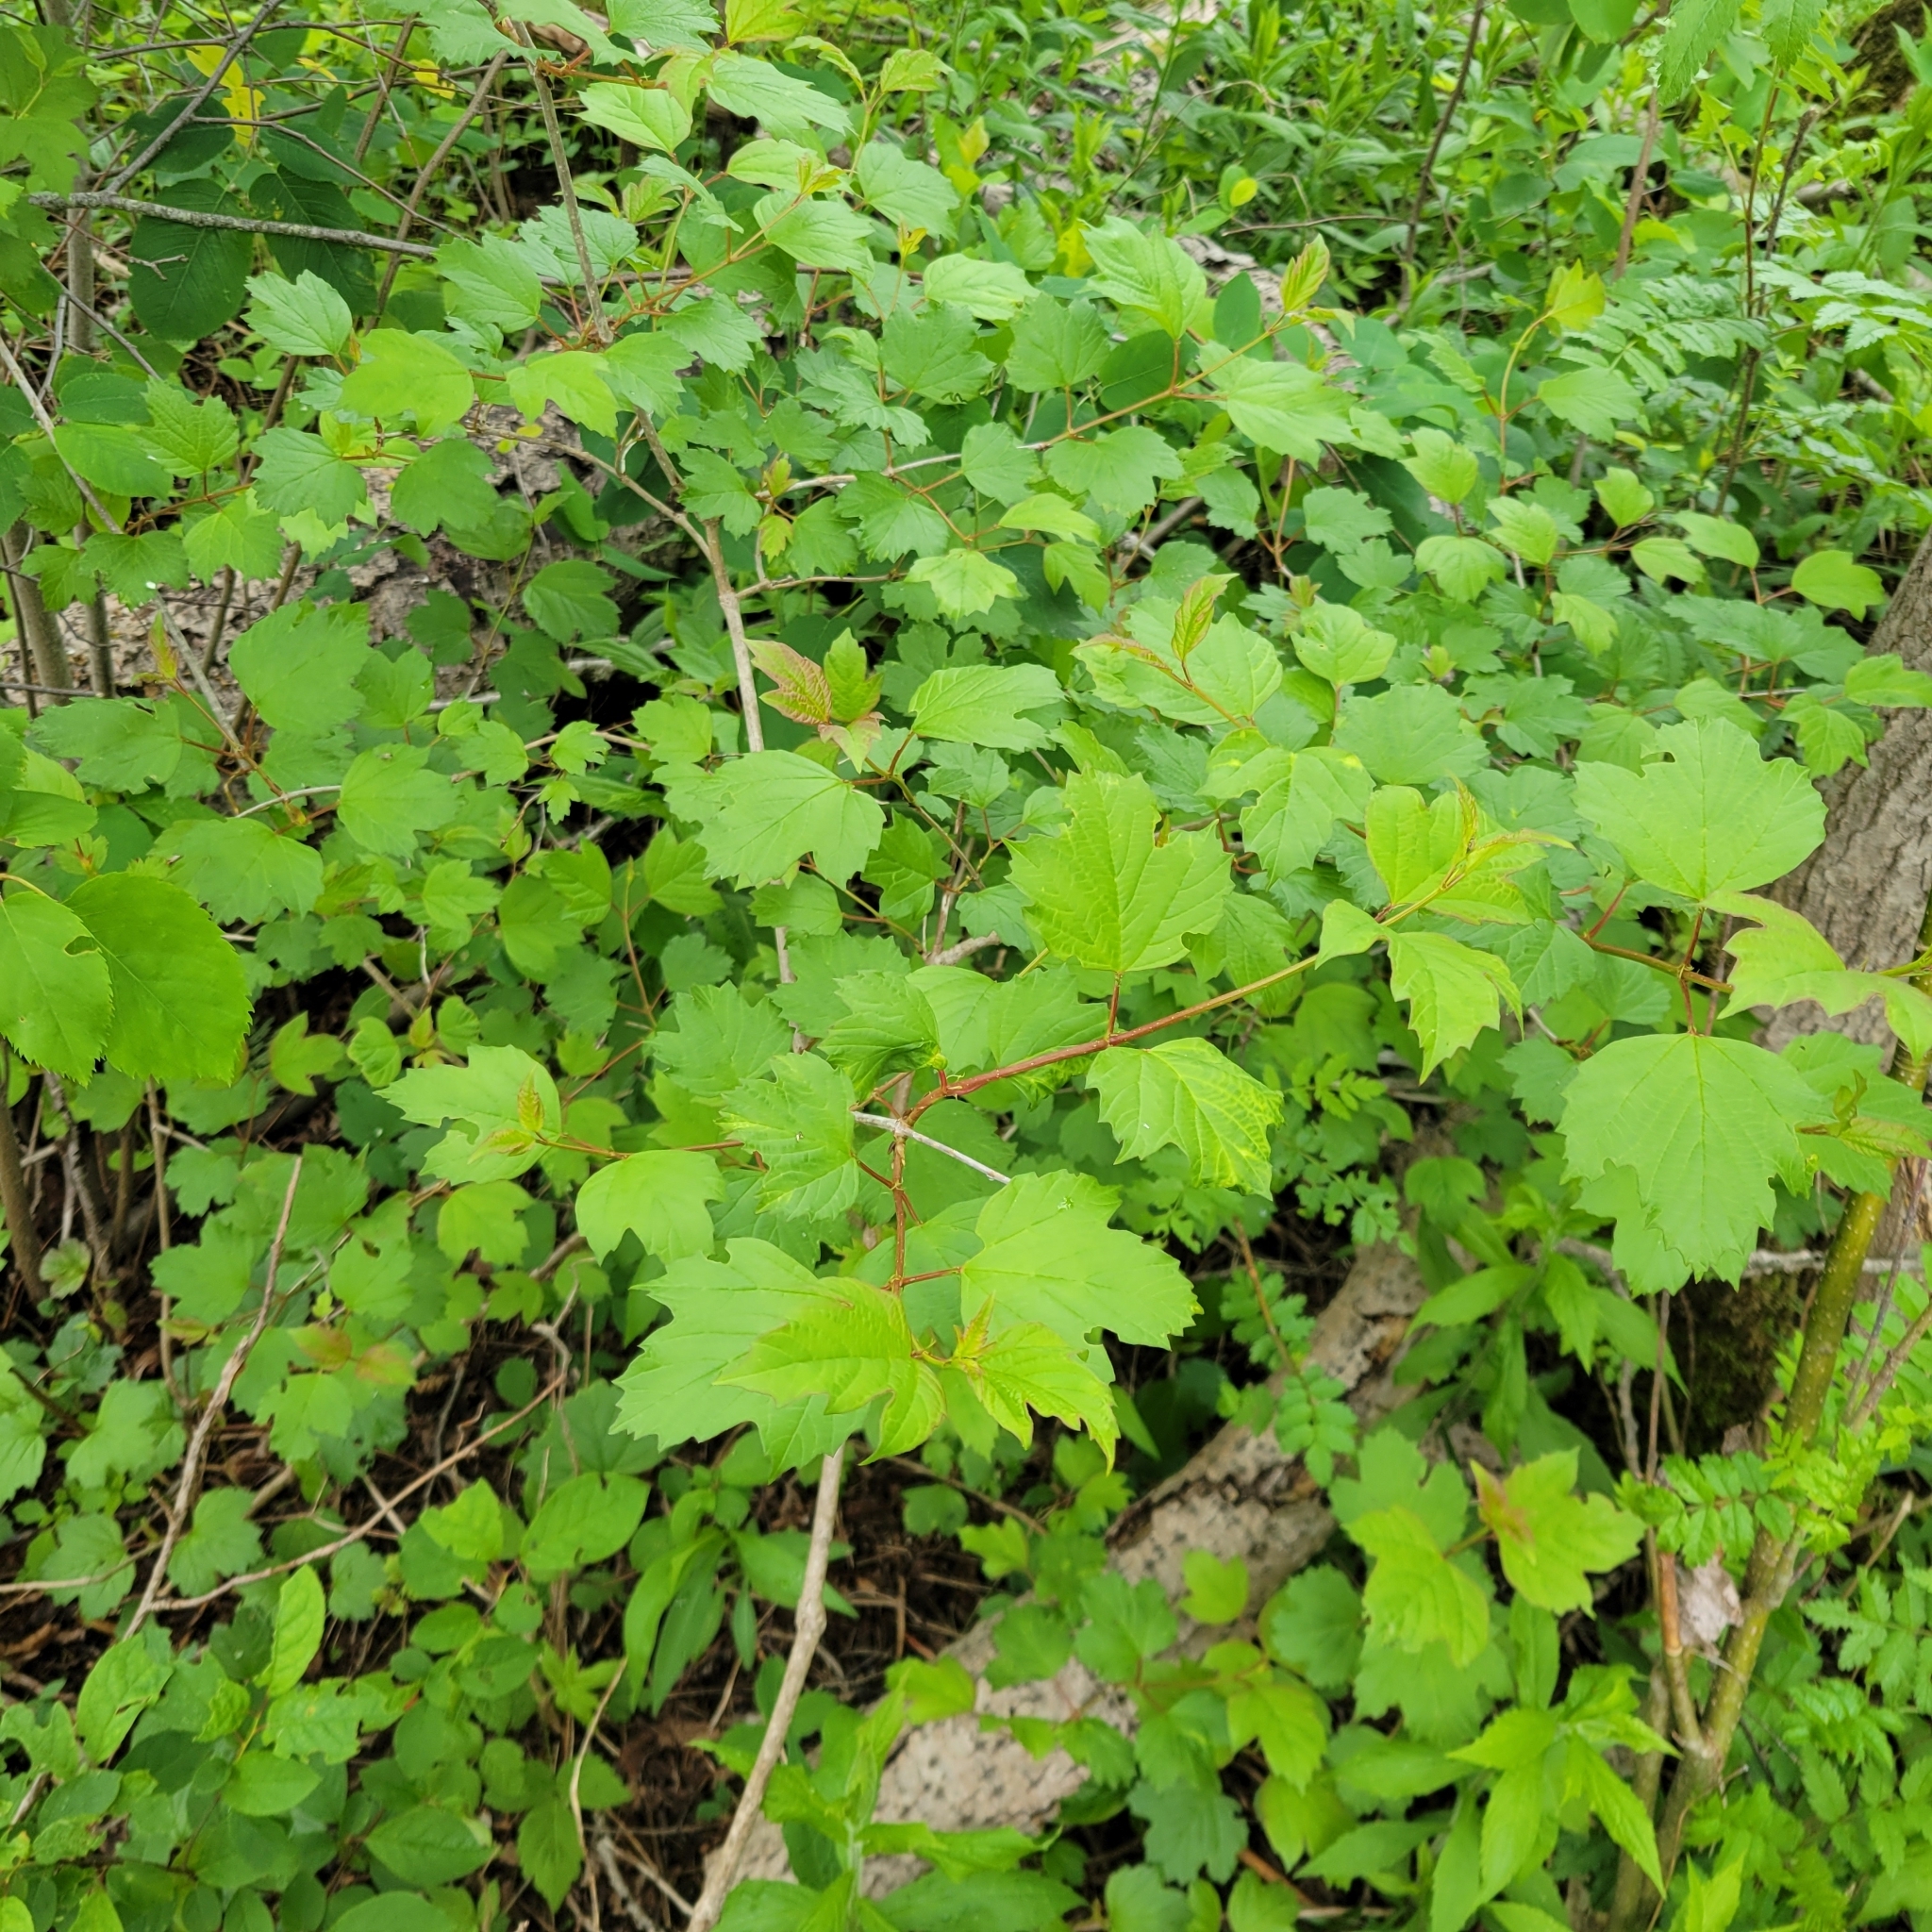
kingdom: Plantae
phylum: Tracheophyta
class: Magnoliopsida
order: Dipsacales
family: Viburnaceae
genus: Viburnum
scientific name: Viburnum opulus
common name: Guelder-rose
